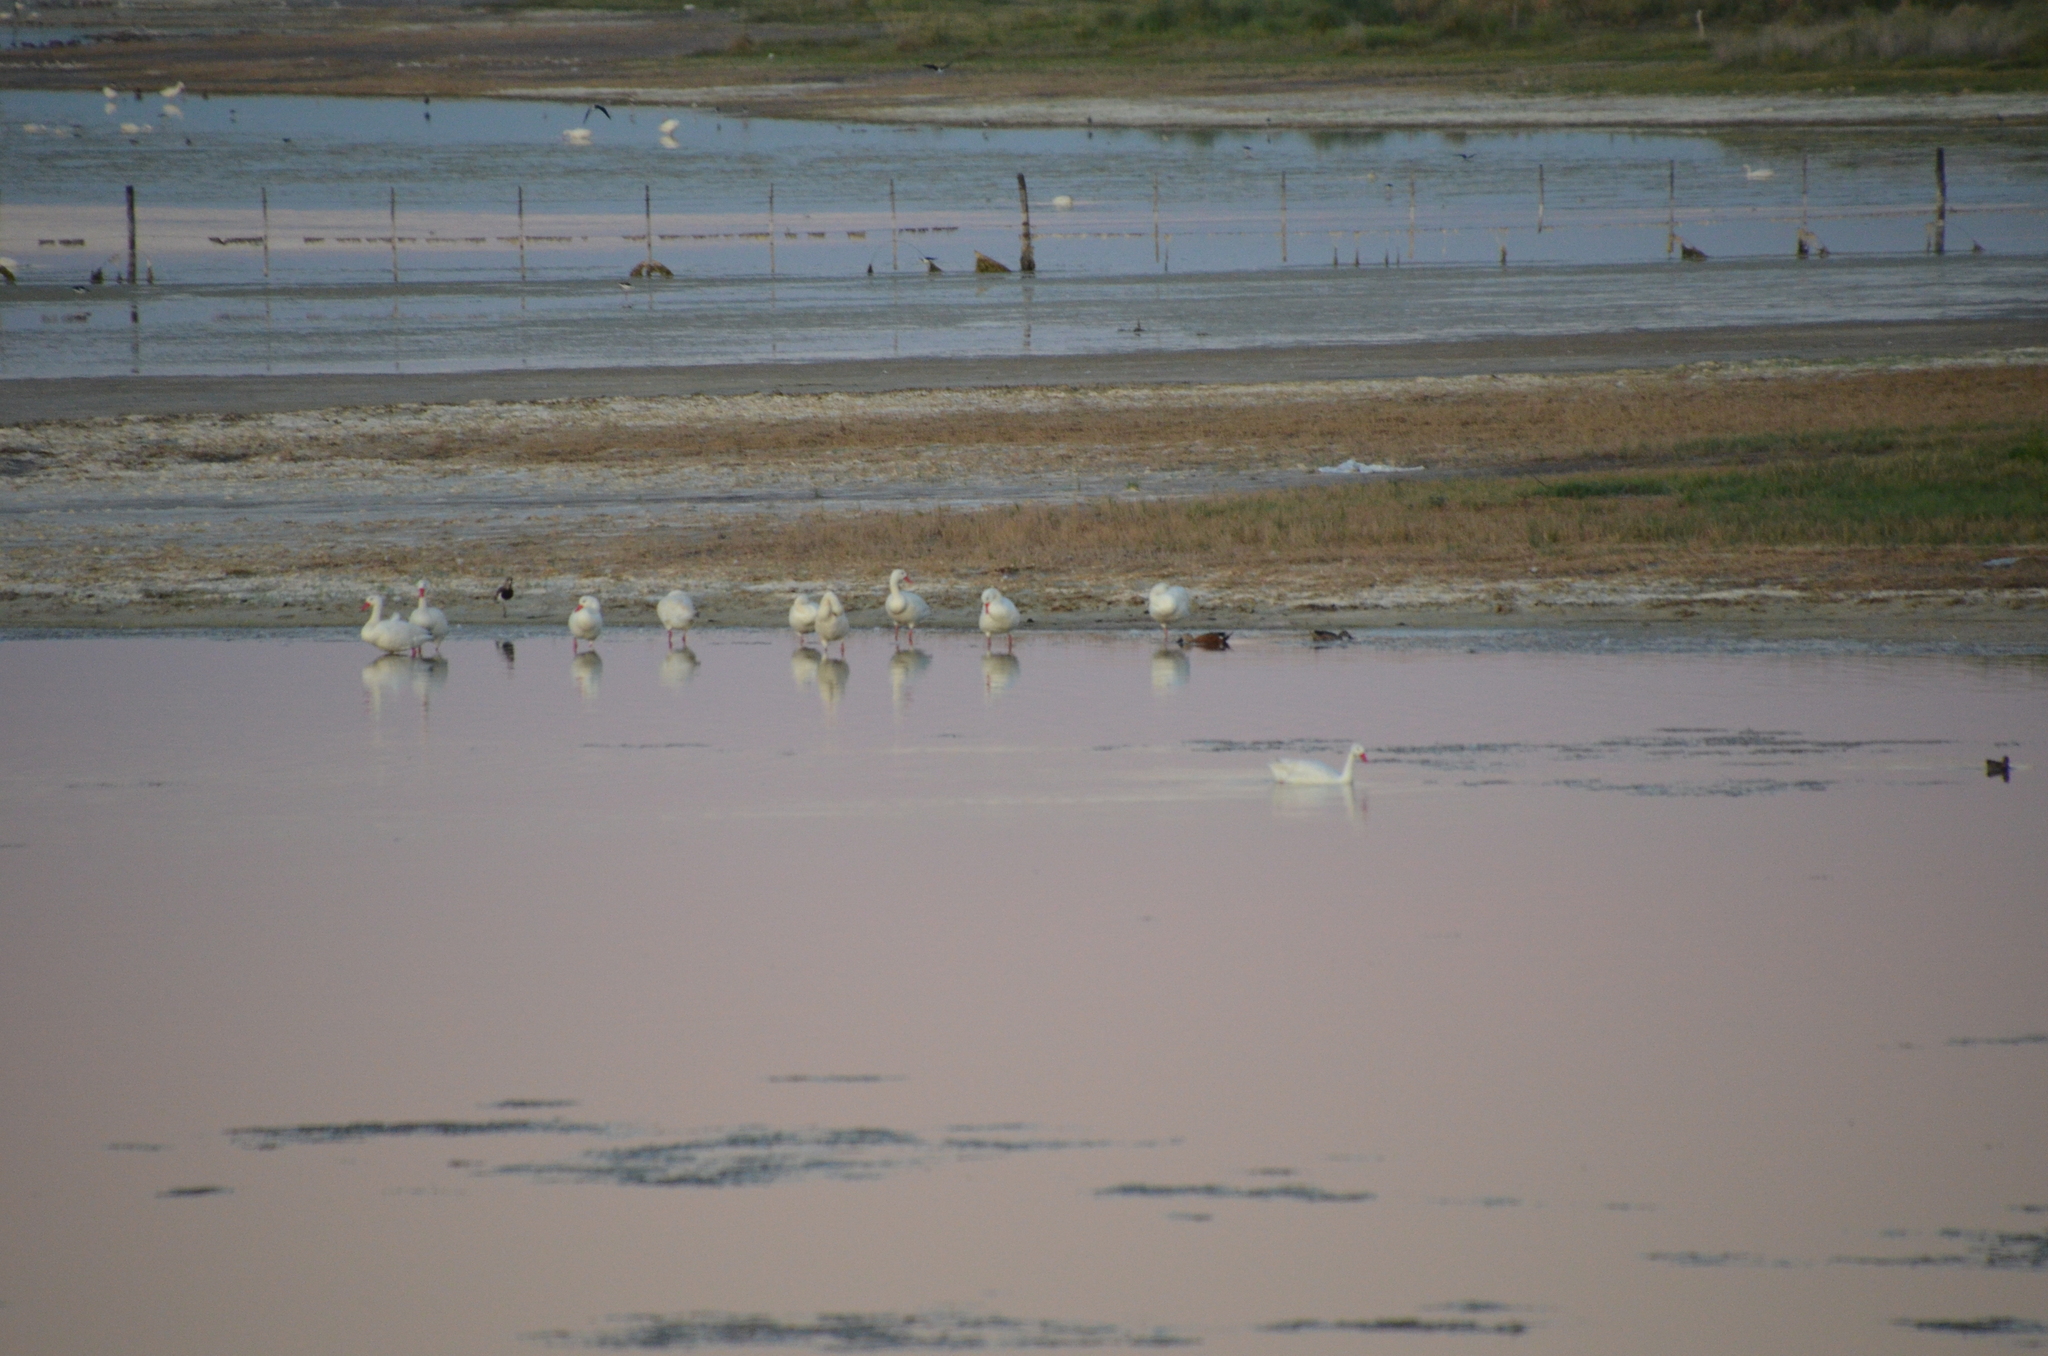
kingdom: Animalia
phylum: Chordata
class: Aves
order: Charadriiformes
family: Charadriidae
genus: Vanellus
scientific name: Vanellus chilensis
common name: Southern lapwing
